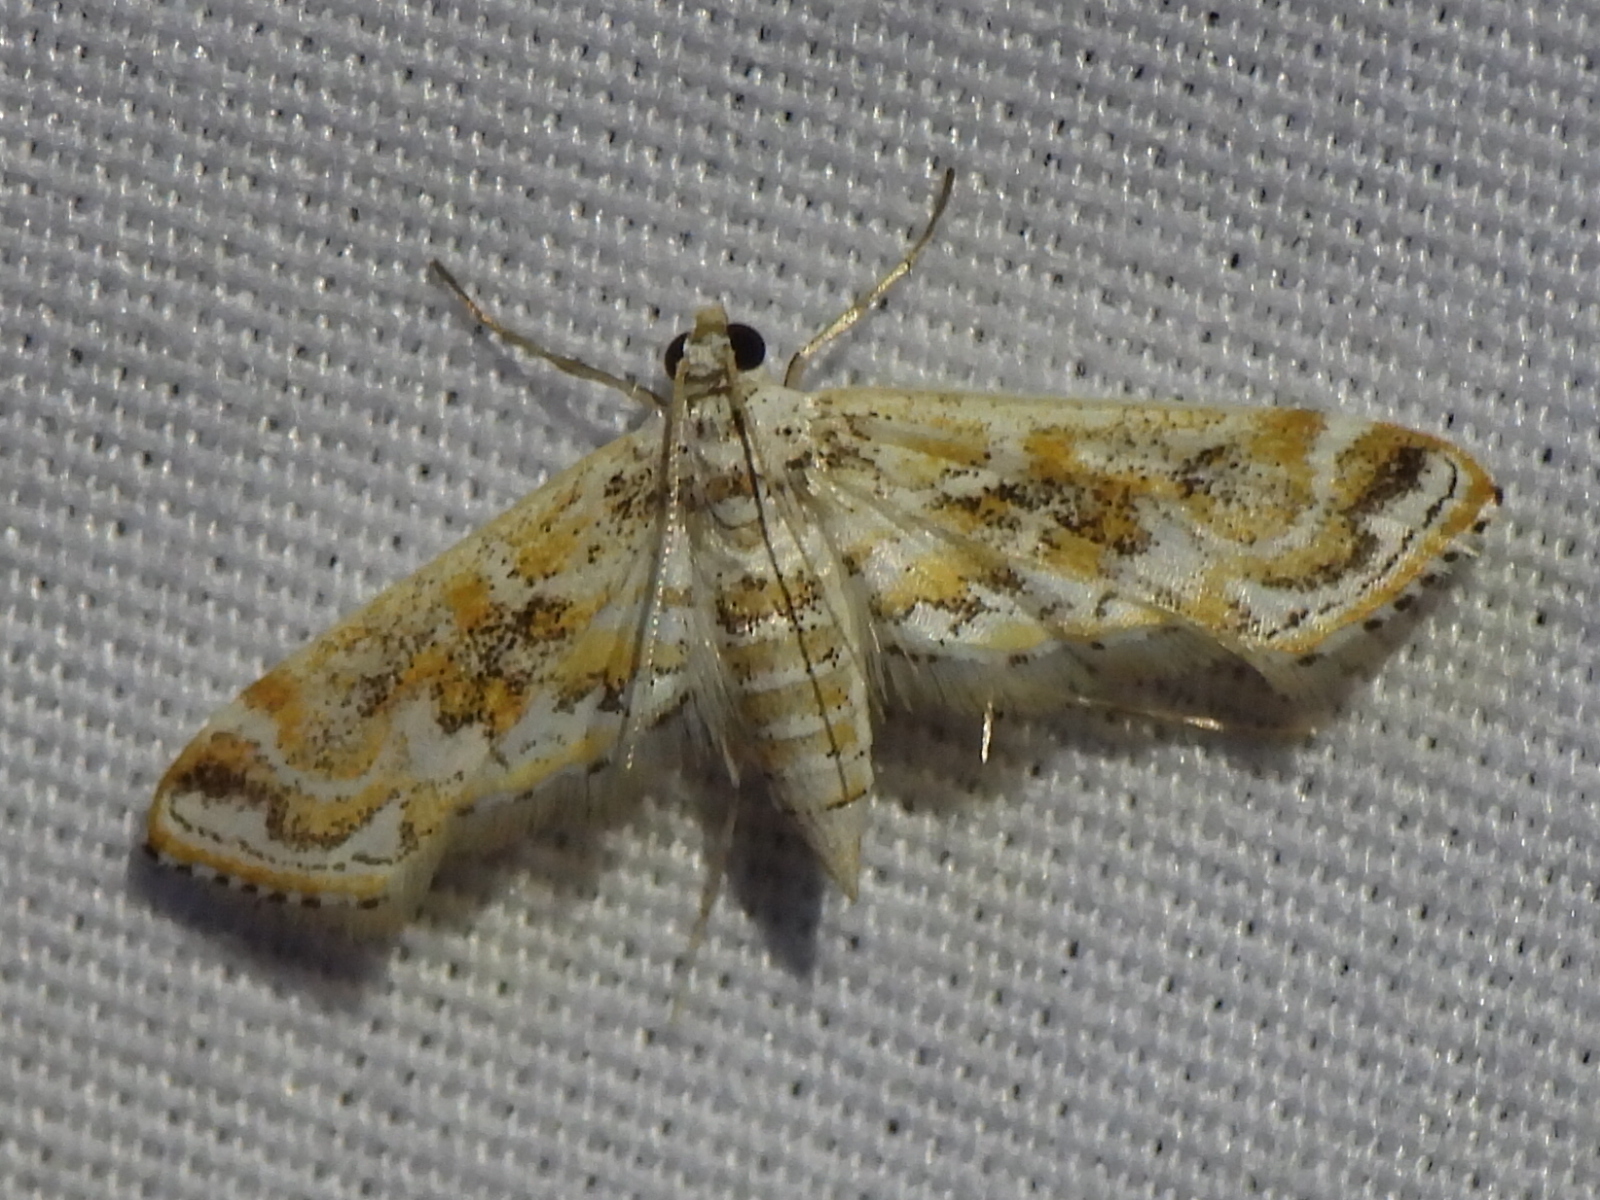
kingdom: Animalia
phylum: Arthropoda
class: Insecta
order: Lepidoptera
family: Crambidae
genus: Parapoynx
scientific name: Parapoynx diminutalis
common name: Hydrilla leafcutter
